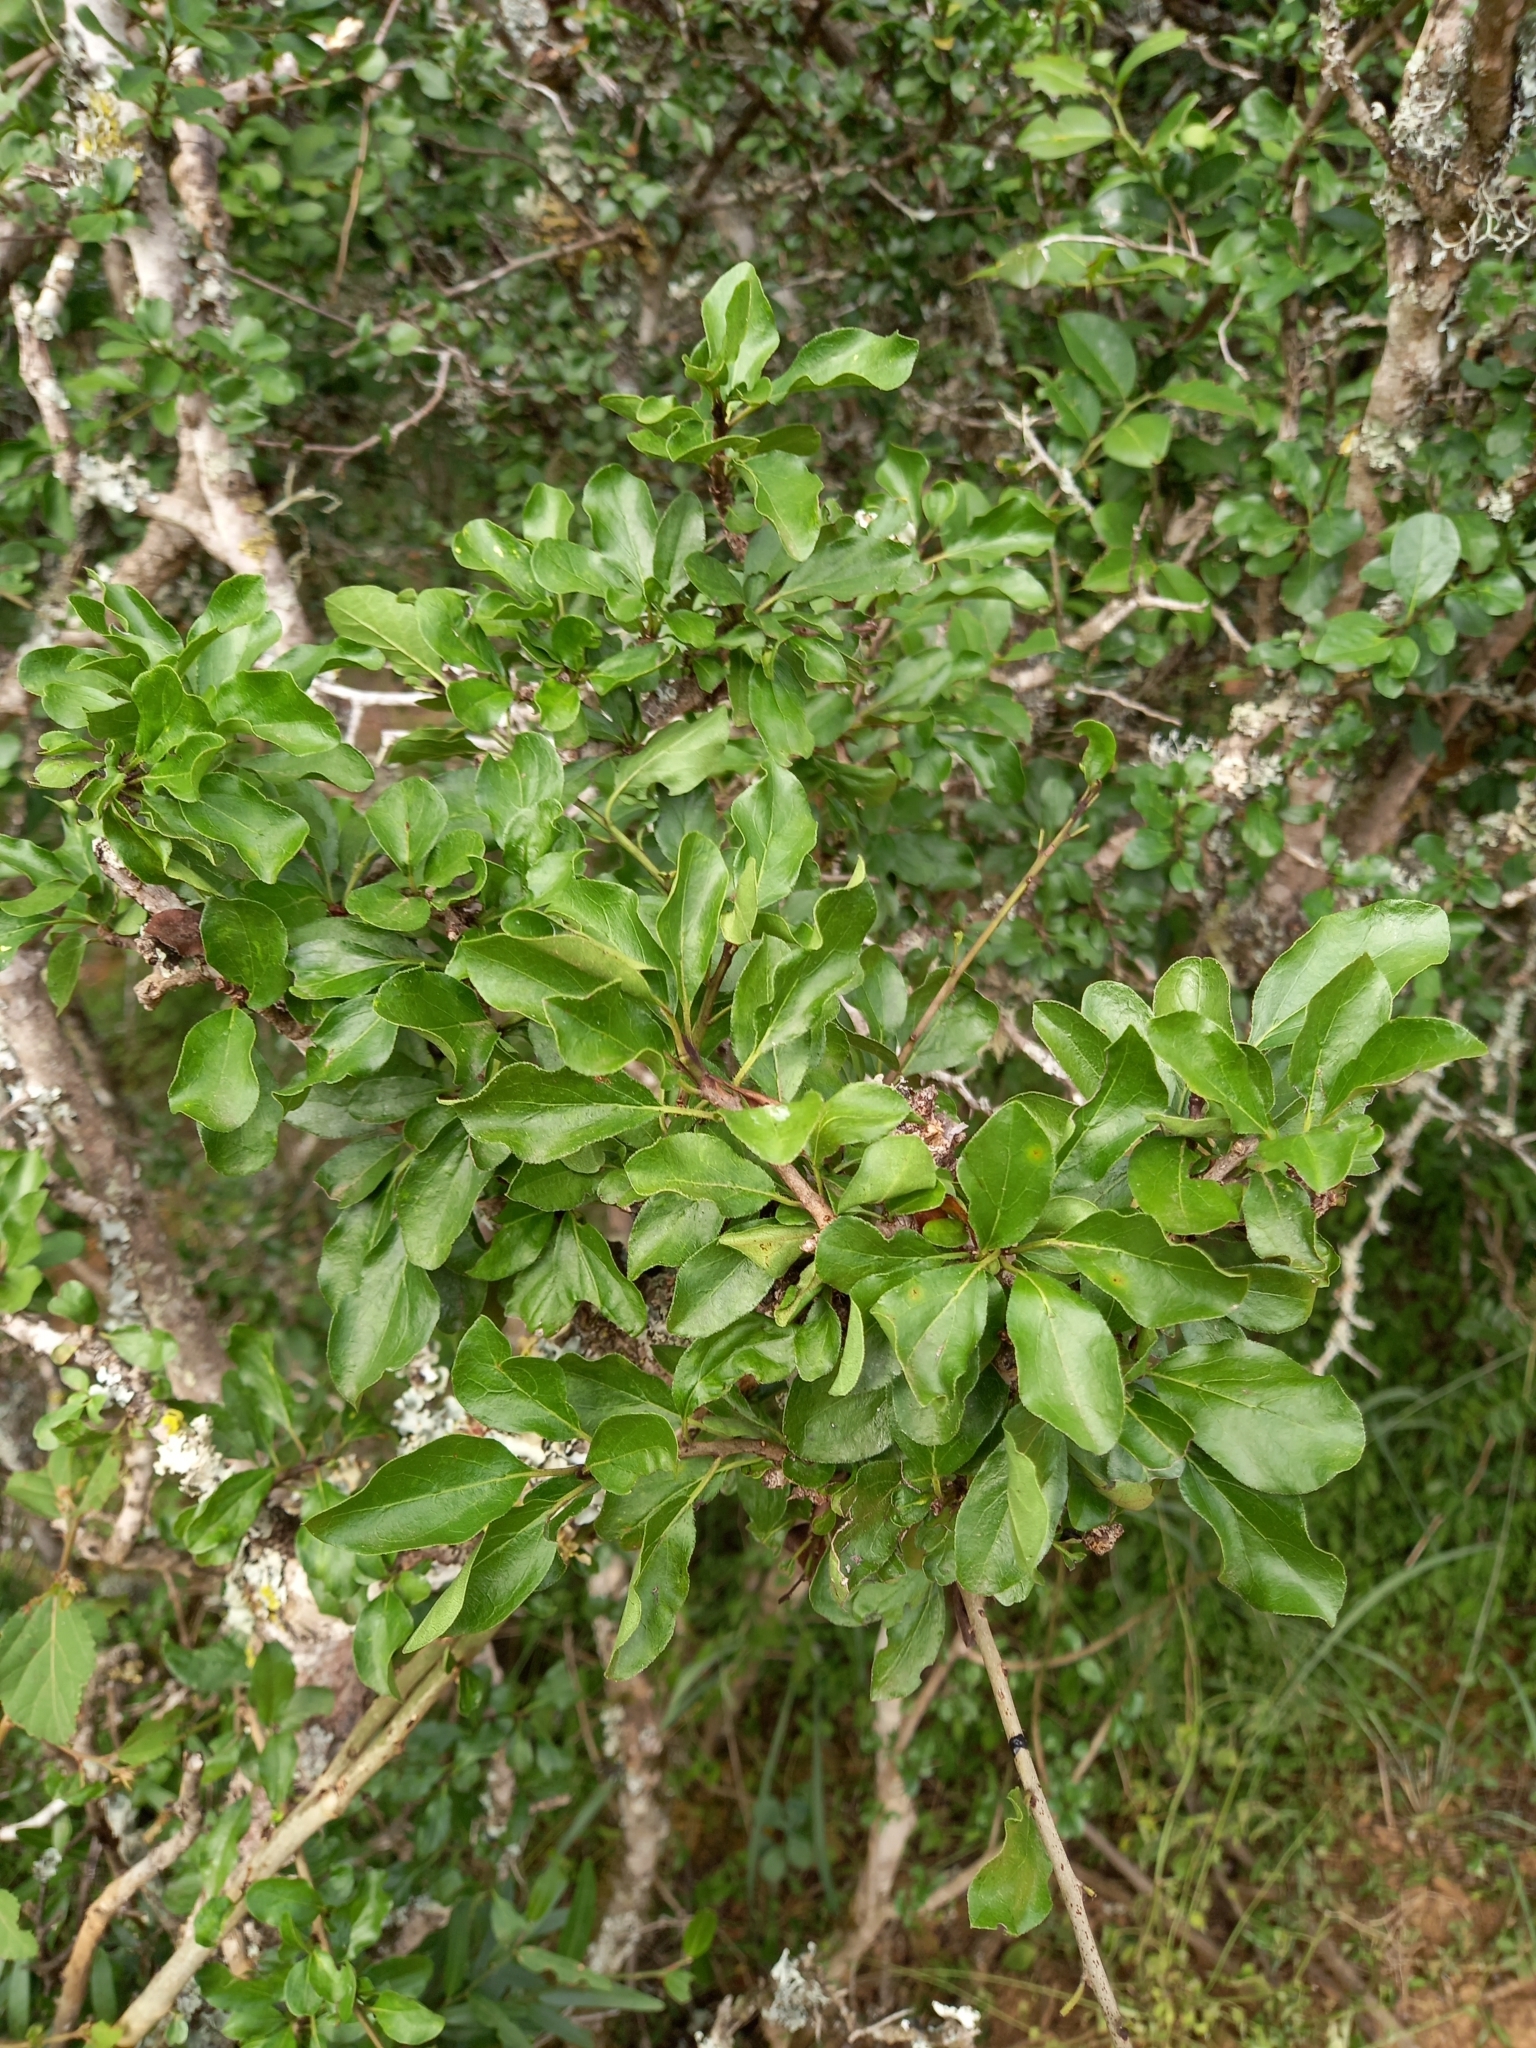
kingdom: Plantae
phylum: Tracheophyta
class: Magnoliopsida
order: Boraginales
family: Ehretiaceae
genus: Ehretia
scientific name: Ehretia rigida
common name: Cape lilac
